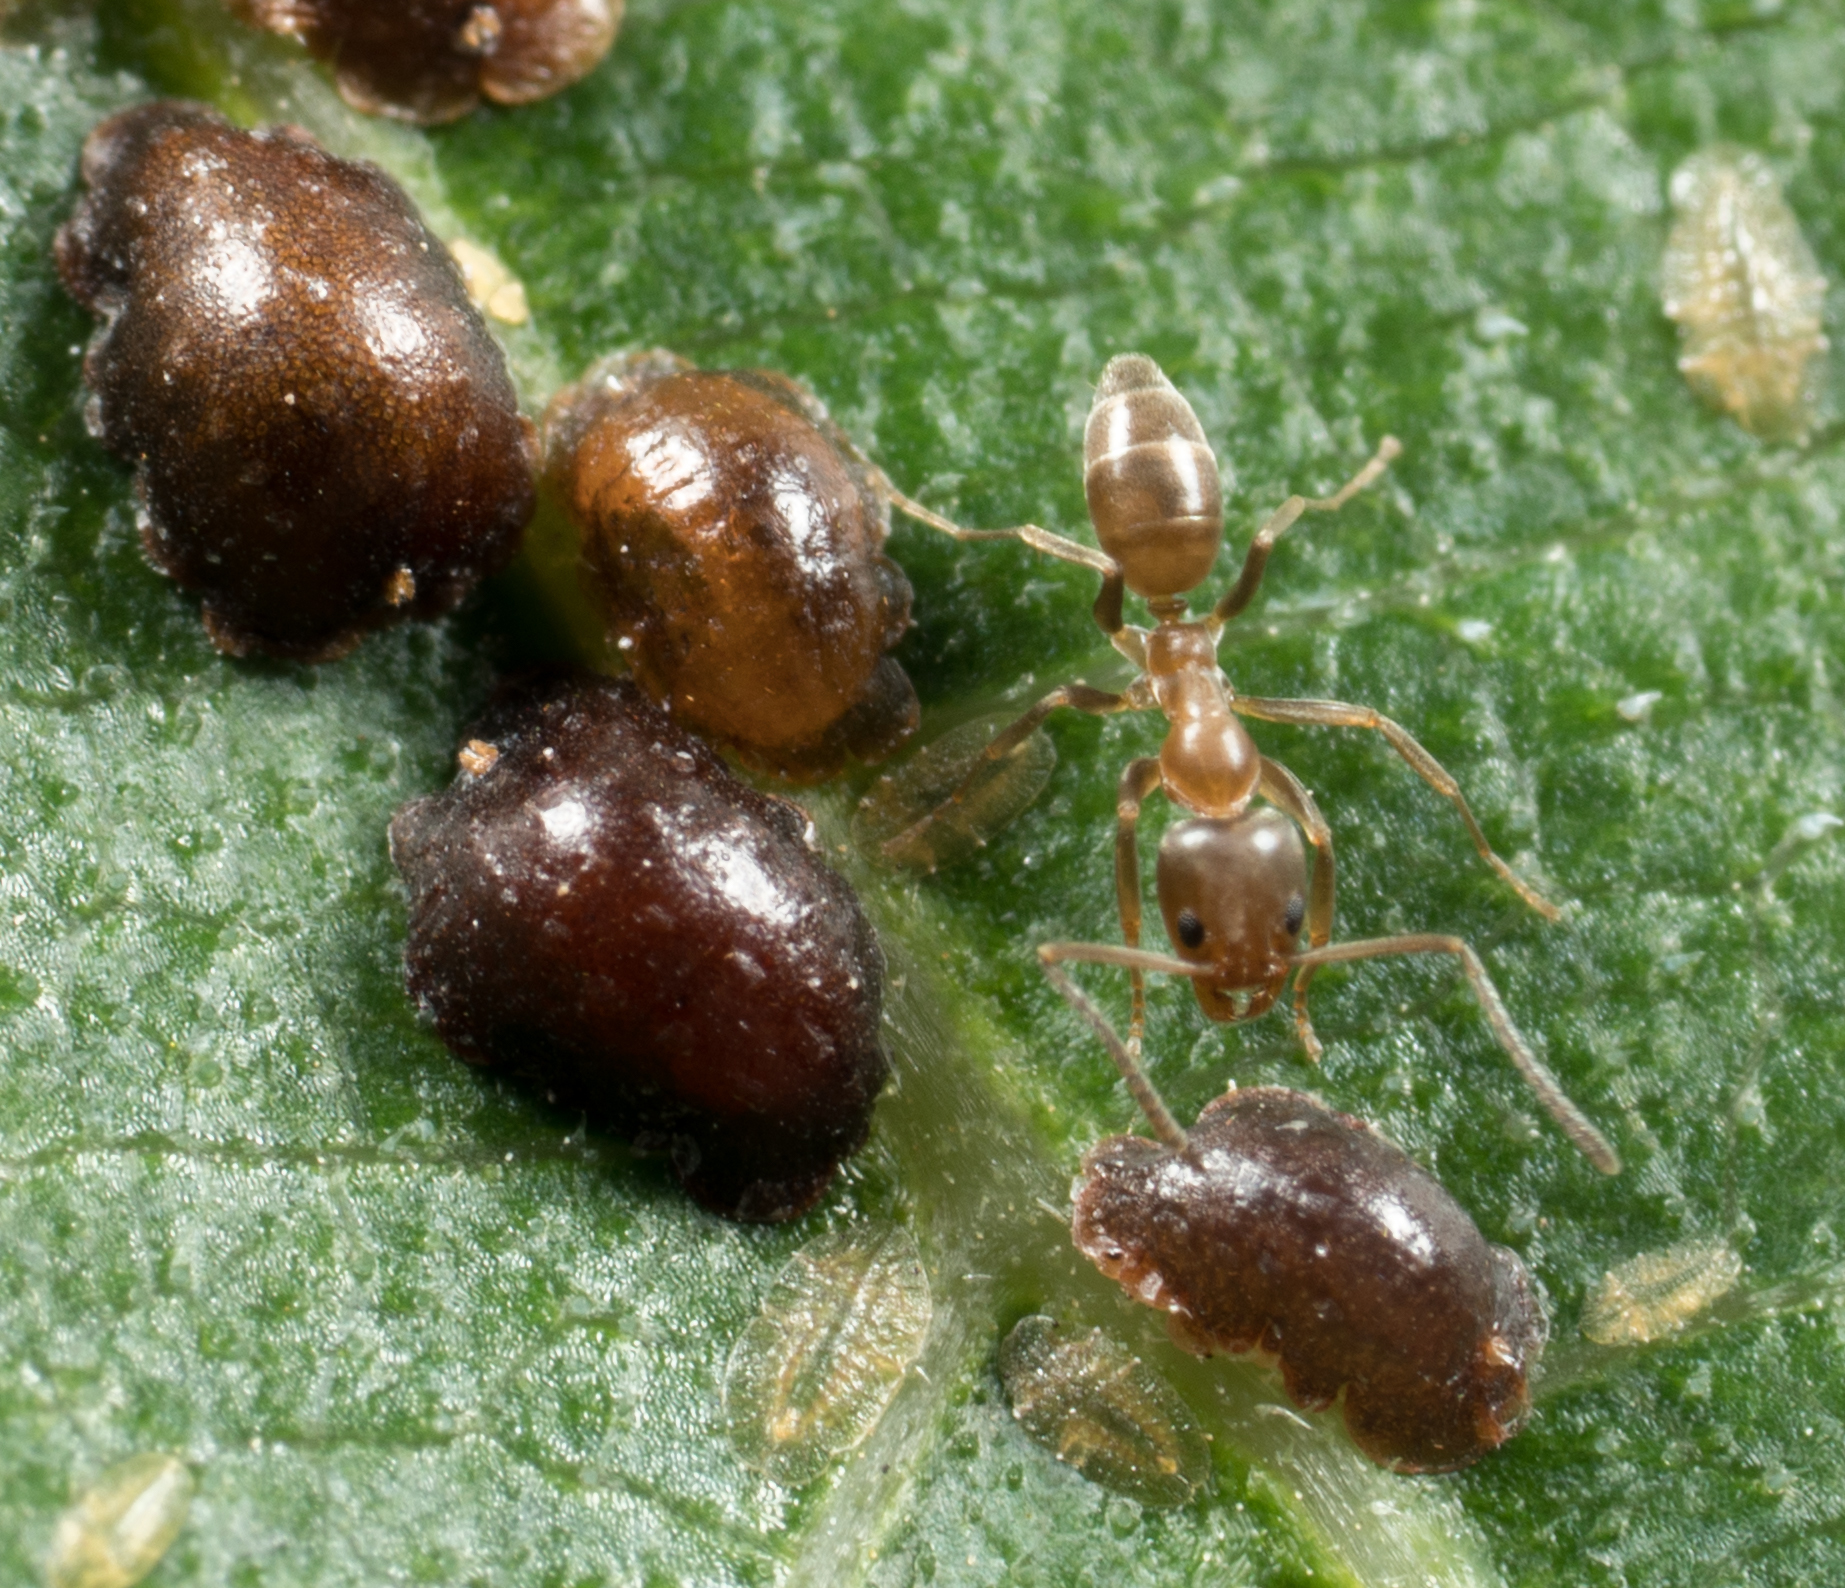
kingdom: Animalia
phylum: Arthropoda
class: Insecta
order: Hymenoptera
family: Formicidae
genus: Linepithema
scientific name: Linepithema humile
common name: Argentine ant
